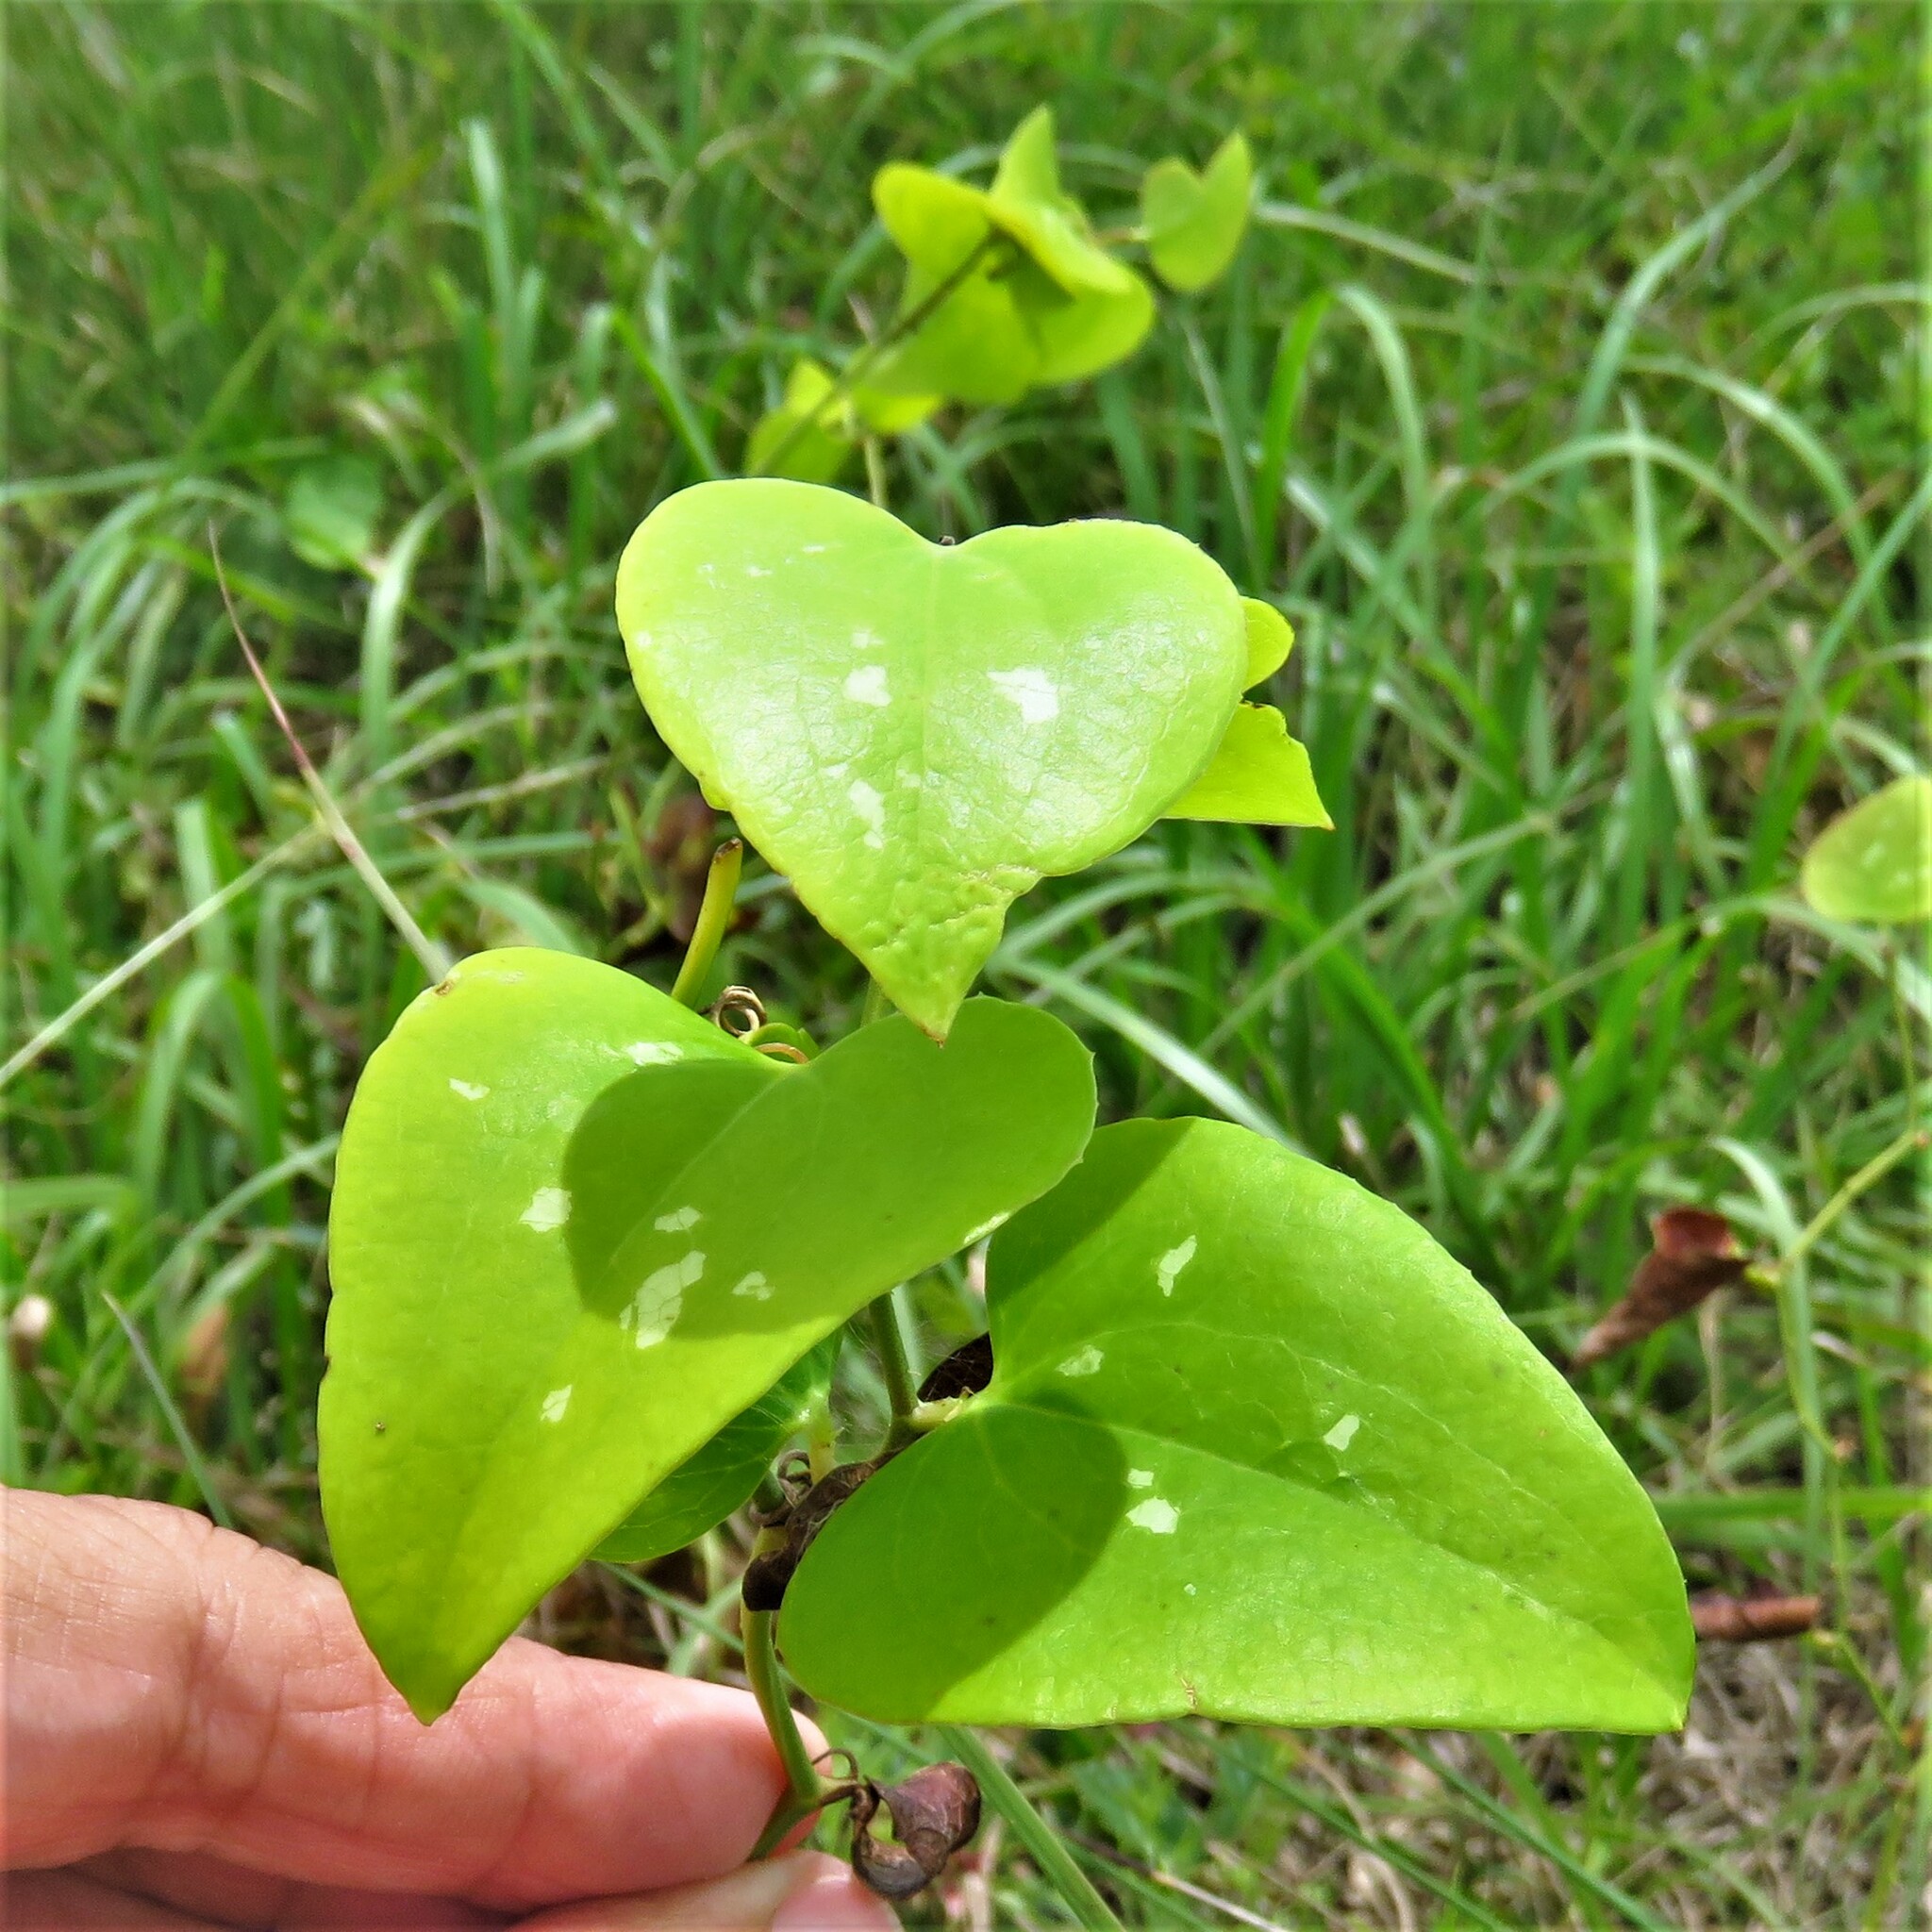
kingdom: Plantae
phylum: Tracheophyta
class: Liliopsida
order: Liliales
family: Smilacaceae
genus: Smilax
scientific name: Smilax bona-nox
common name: Catbrier
